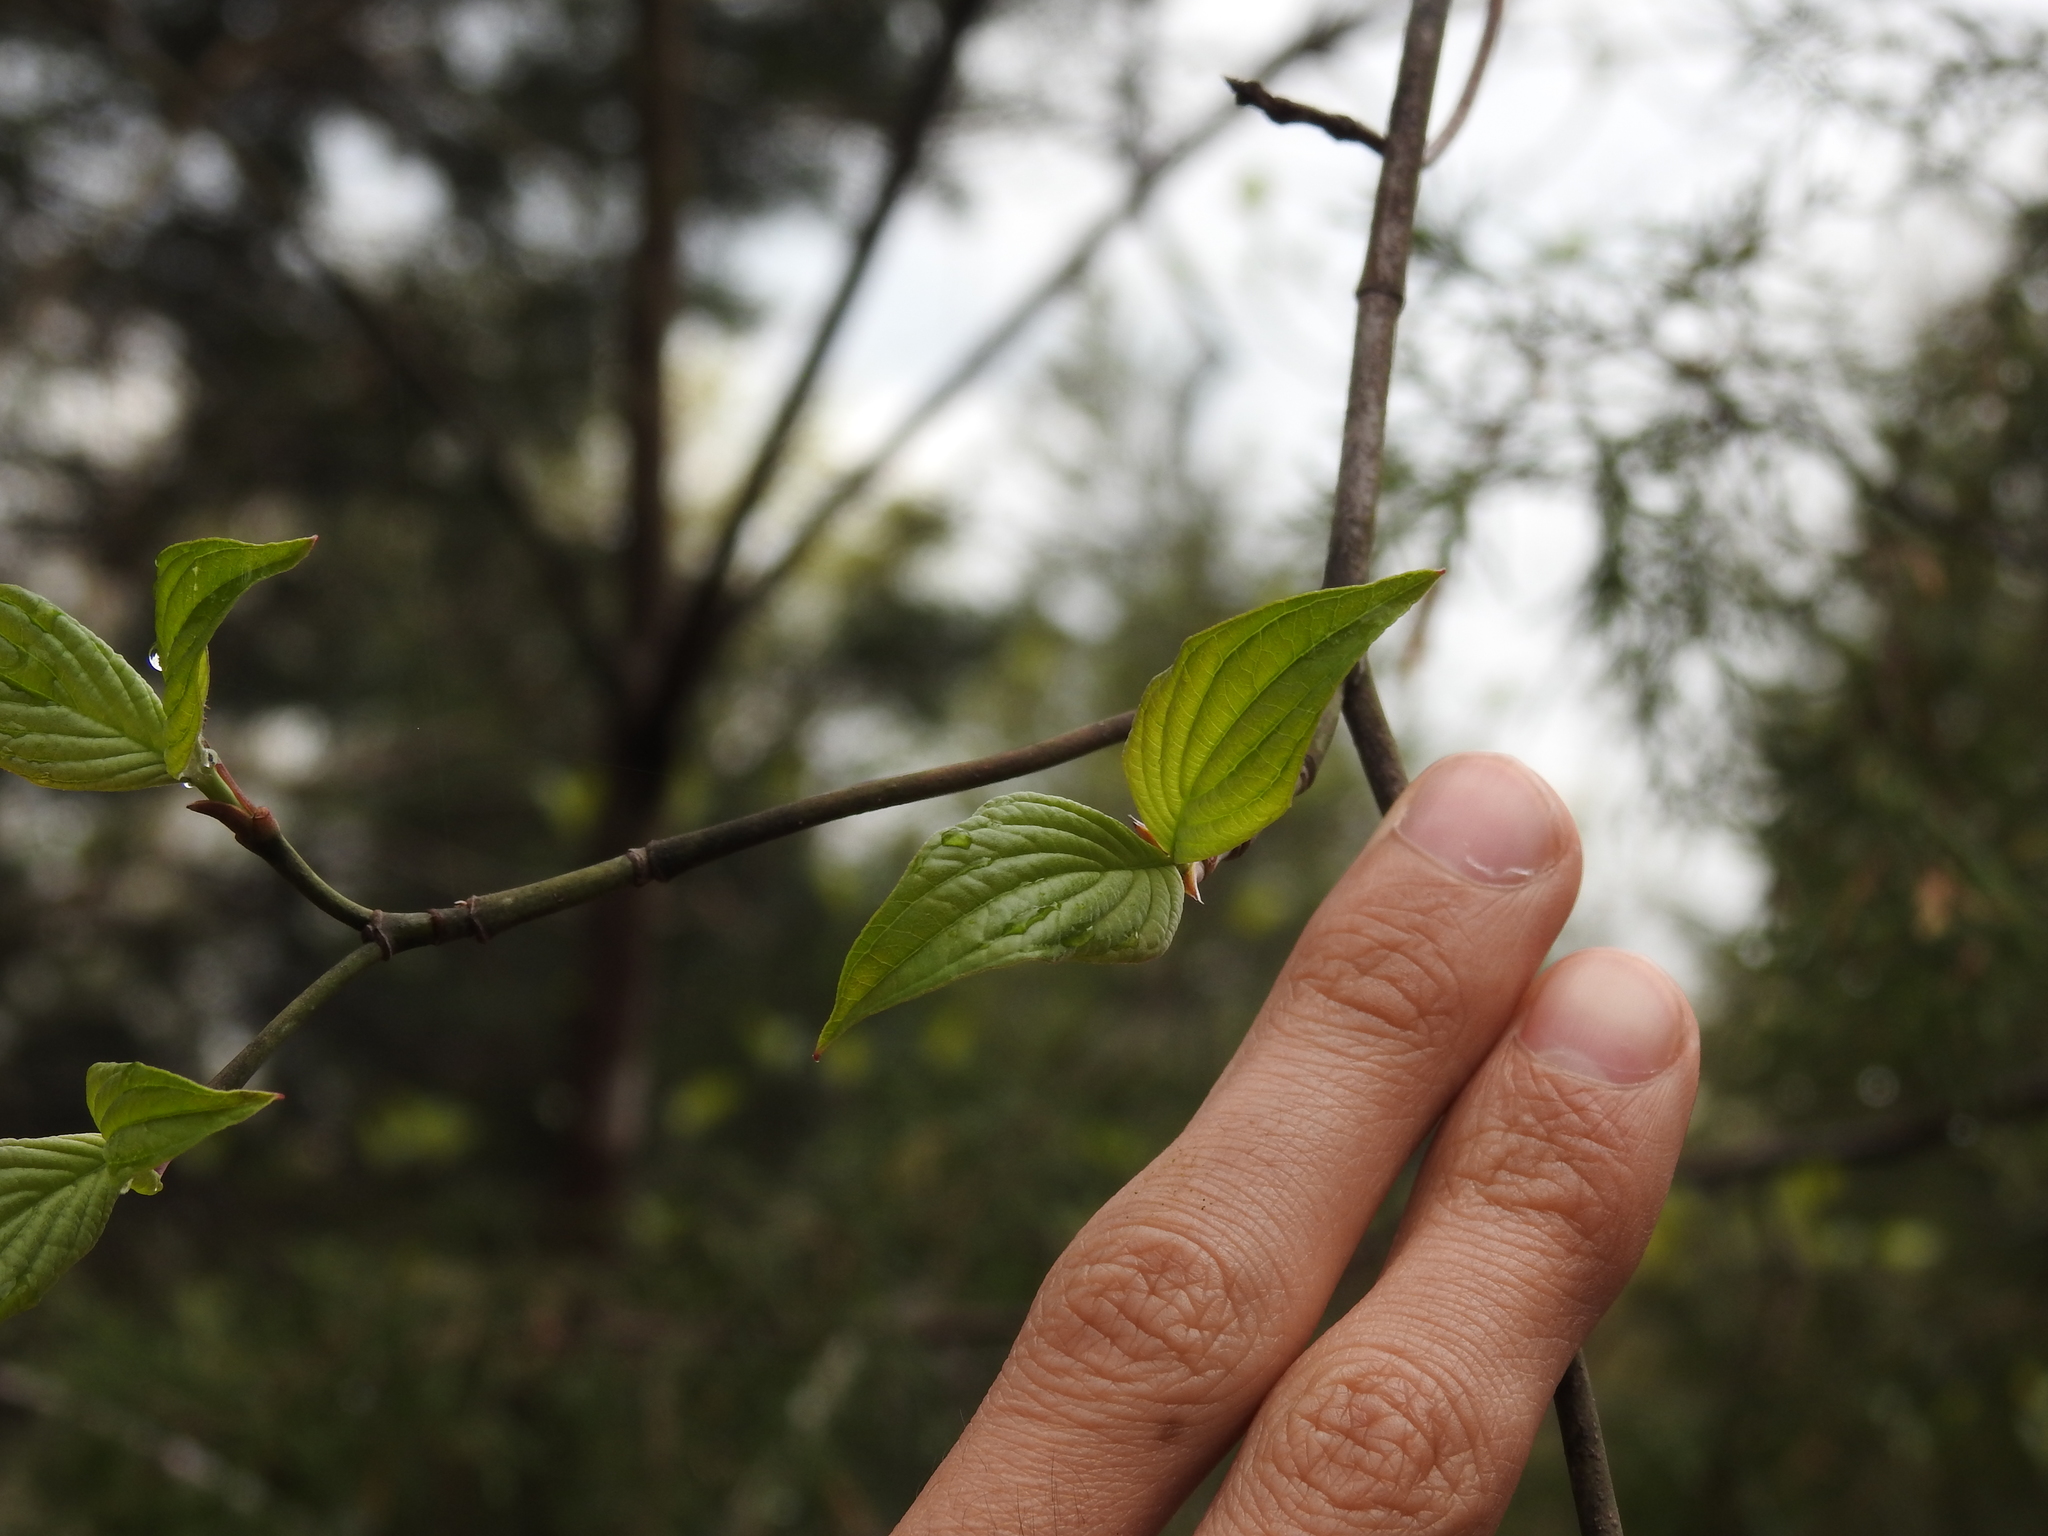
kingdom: Plantae
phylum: Tracheophyta
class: Magnoliopsida
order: Cornales
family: Cornaceae
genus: Cornus
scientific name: Cornus florida
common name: Flowering dogwood
